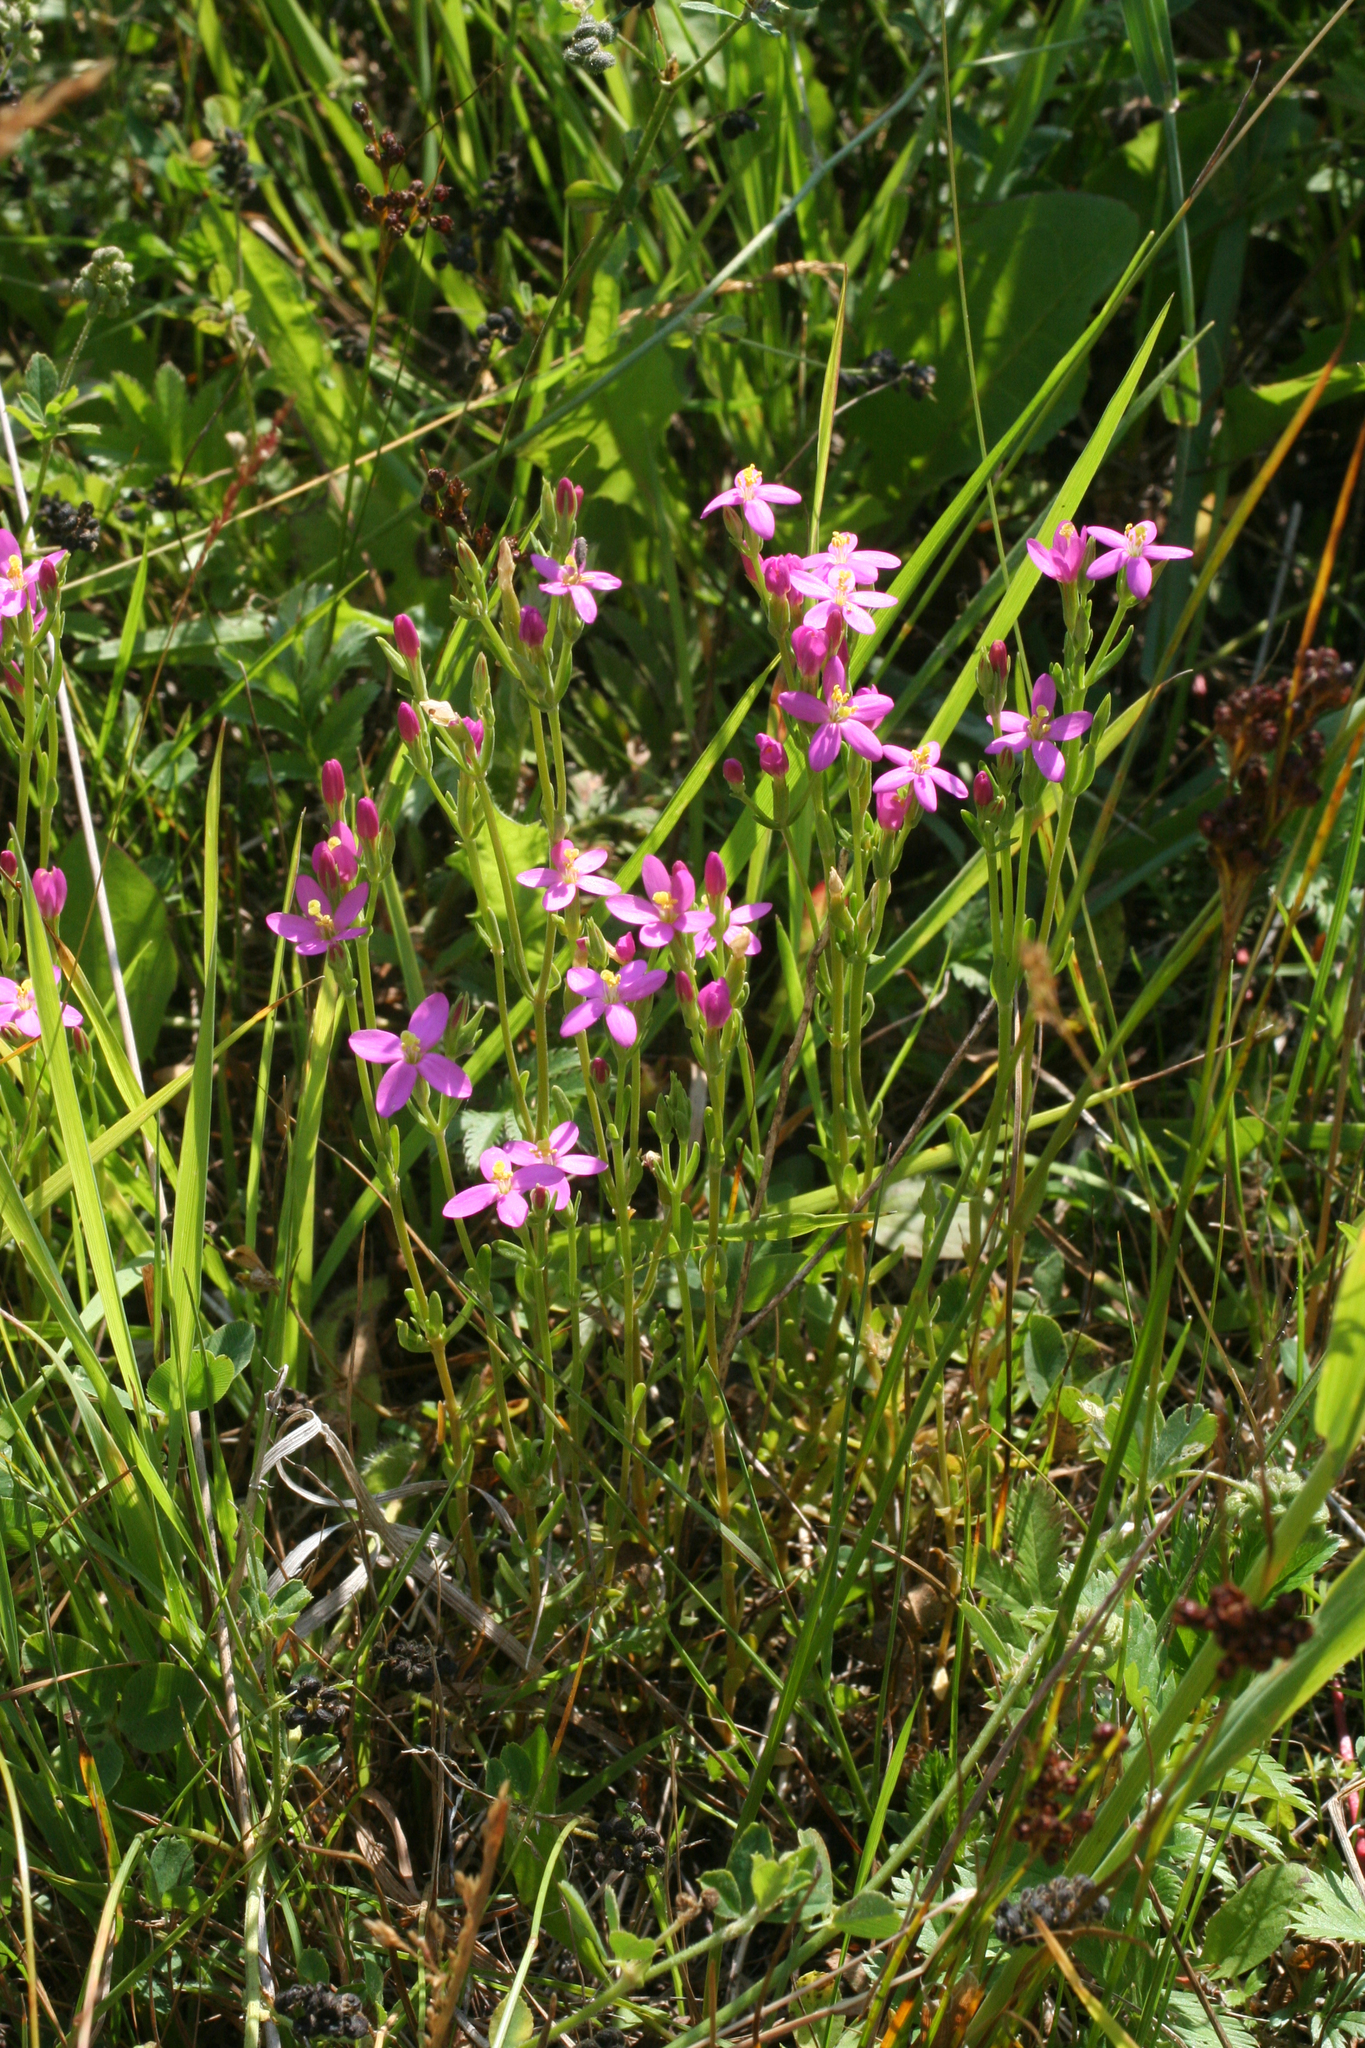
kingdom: Plantae
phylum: Tracheophyta
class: Magnoliopsida
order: Gentianales
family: Gentianaceae
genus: Centaurium
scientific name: Centaurium pulchellum
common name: Lesser centaury
